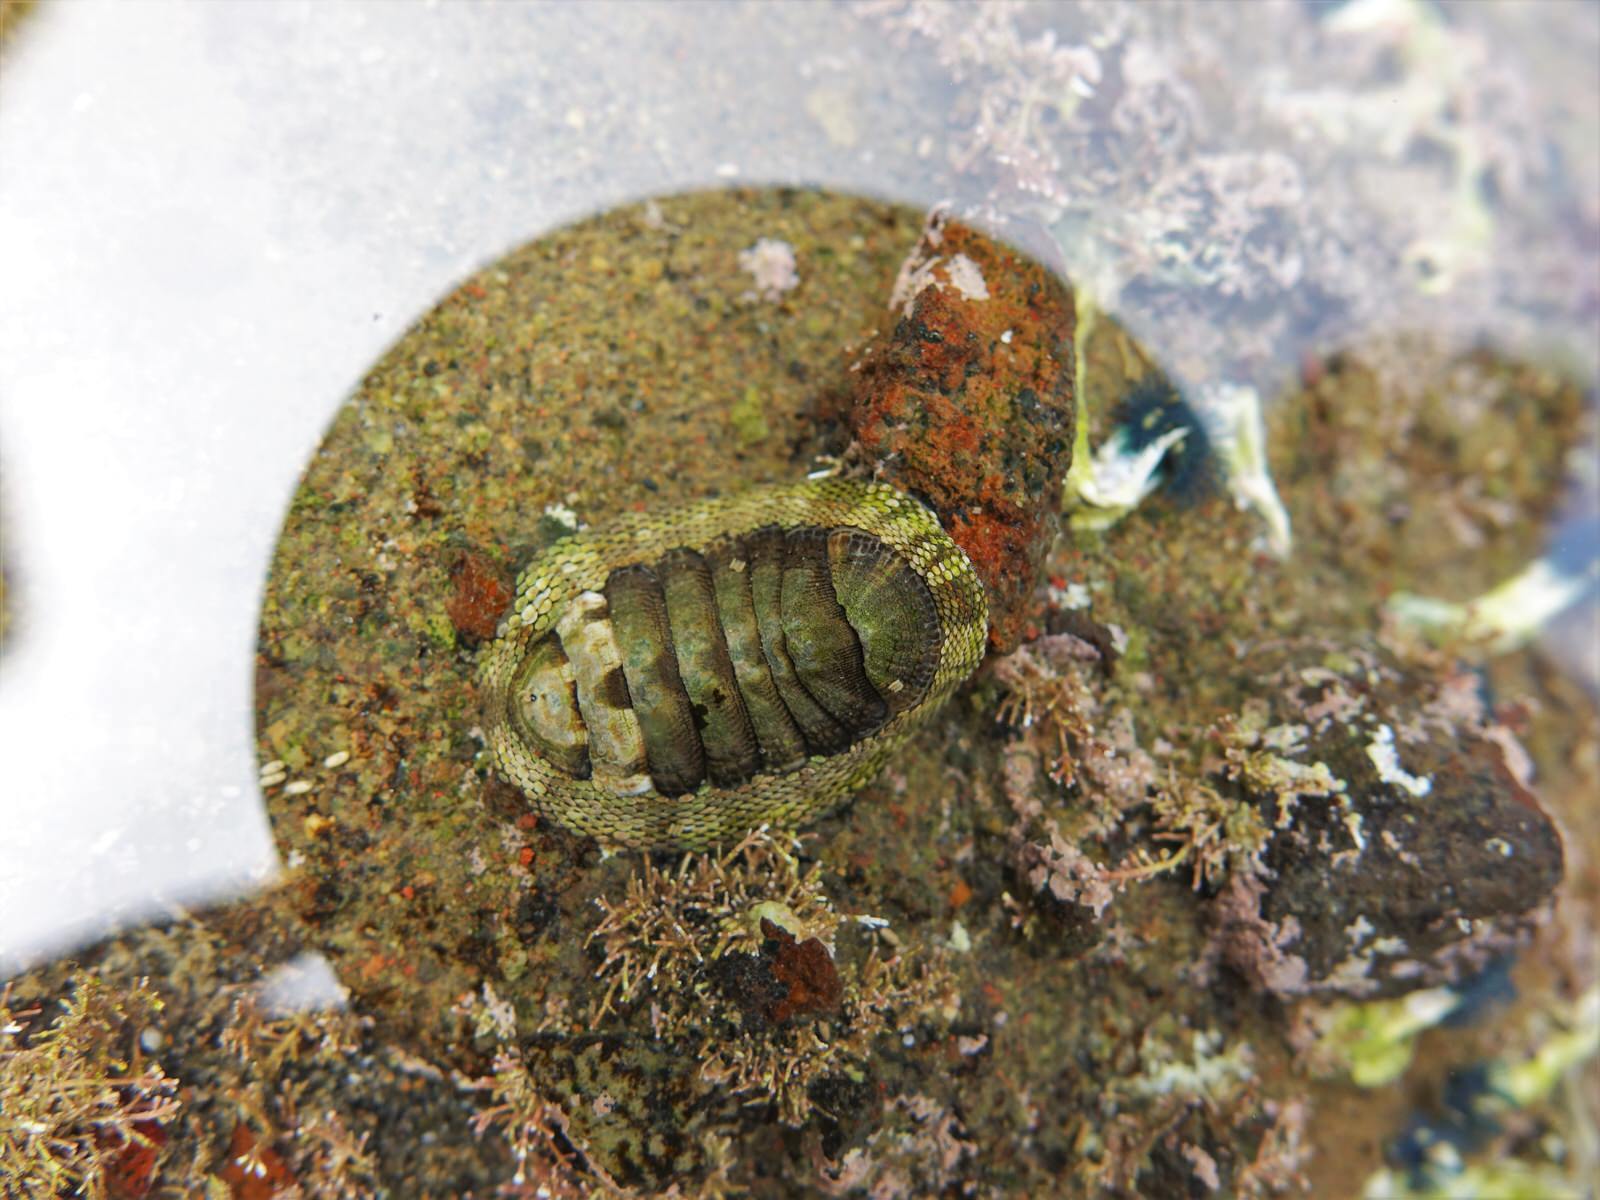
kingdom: Animalia
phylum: Mollusca
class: Polyplacophora
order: Chitonida
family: Chitonidae
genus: Sypharochiton
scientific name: Sypharochiton pelliserpentis
